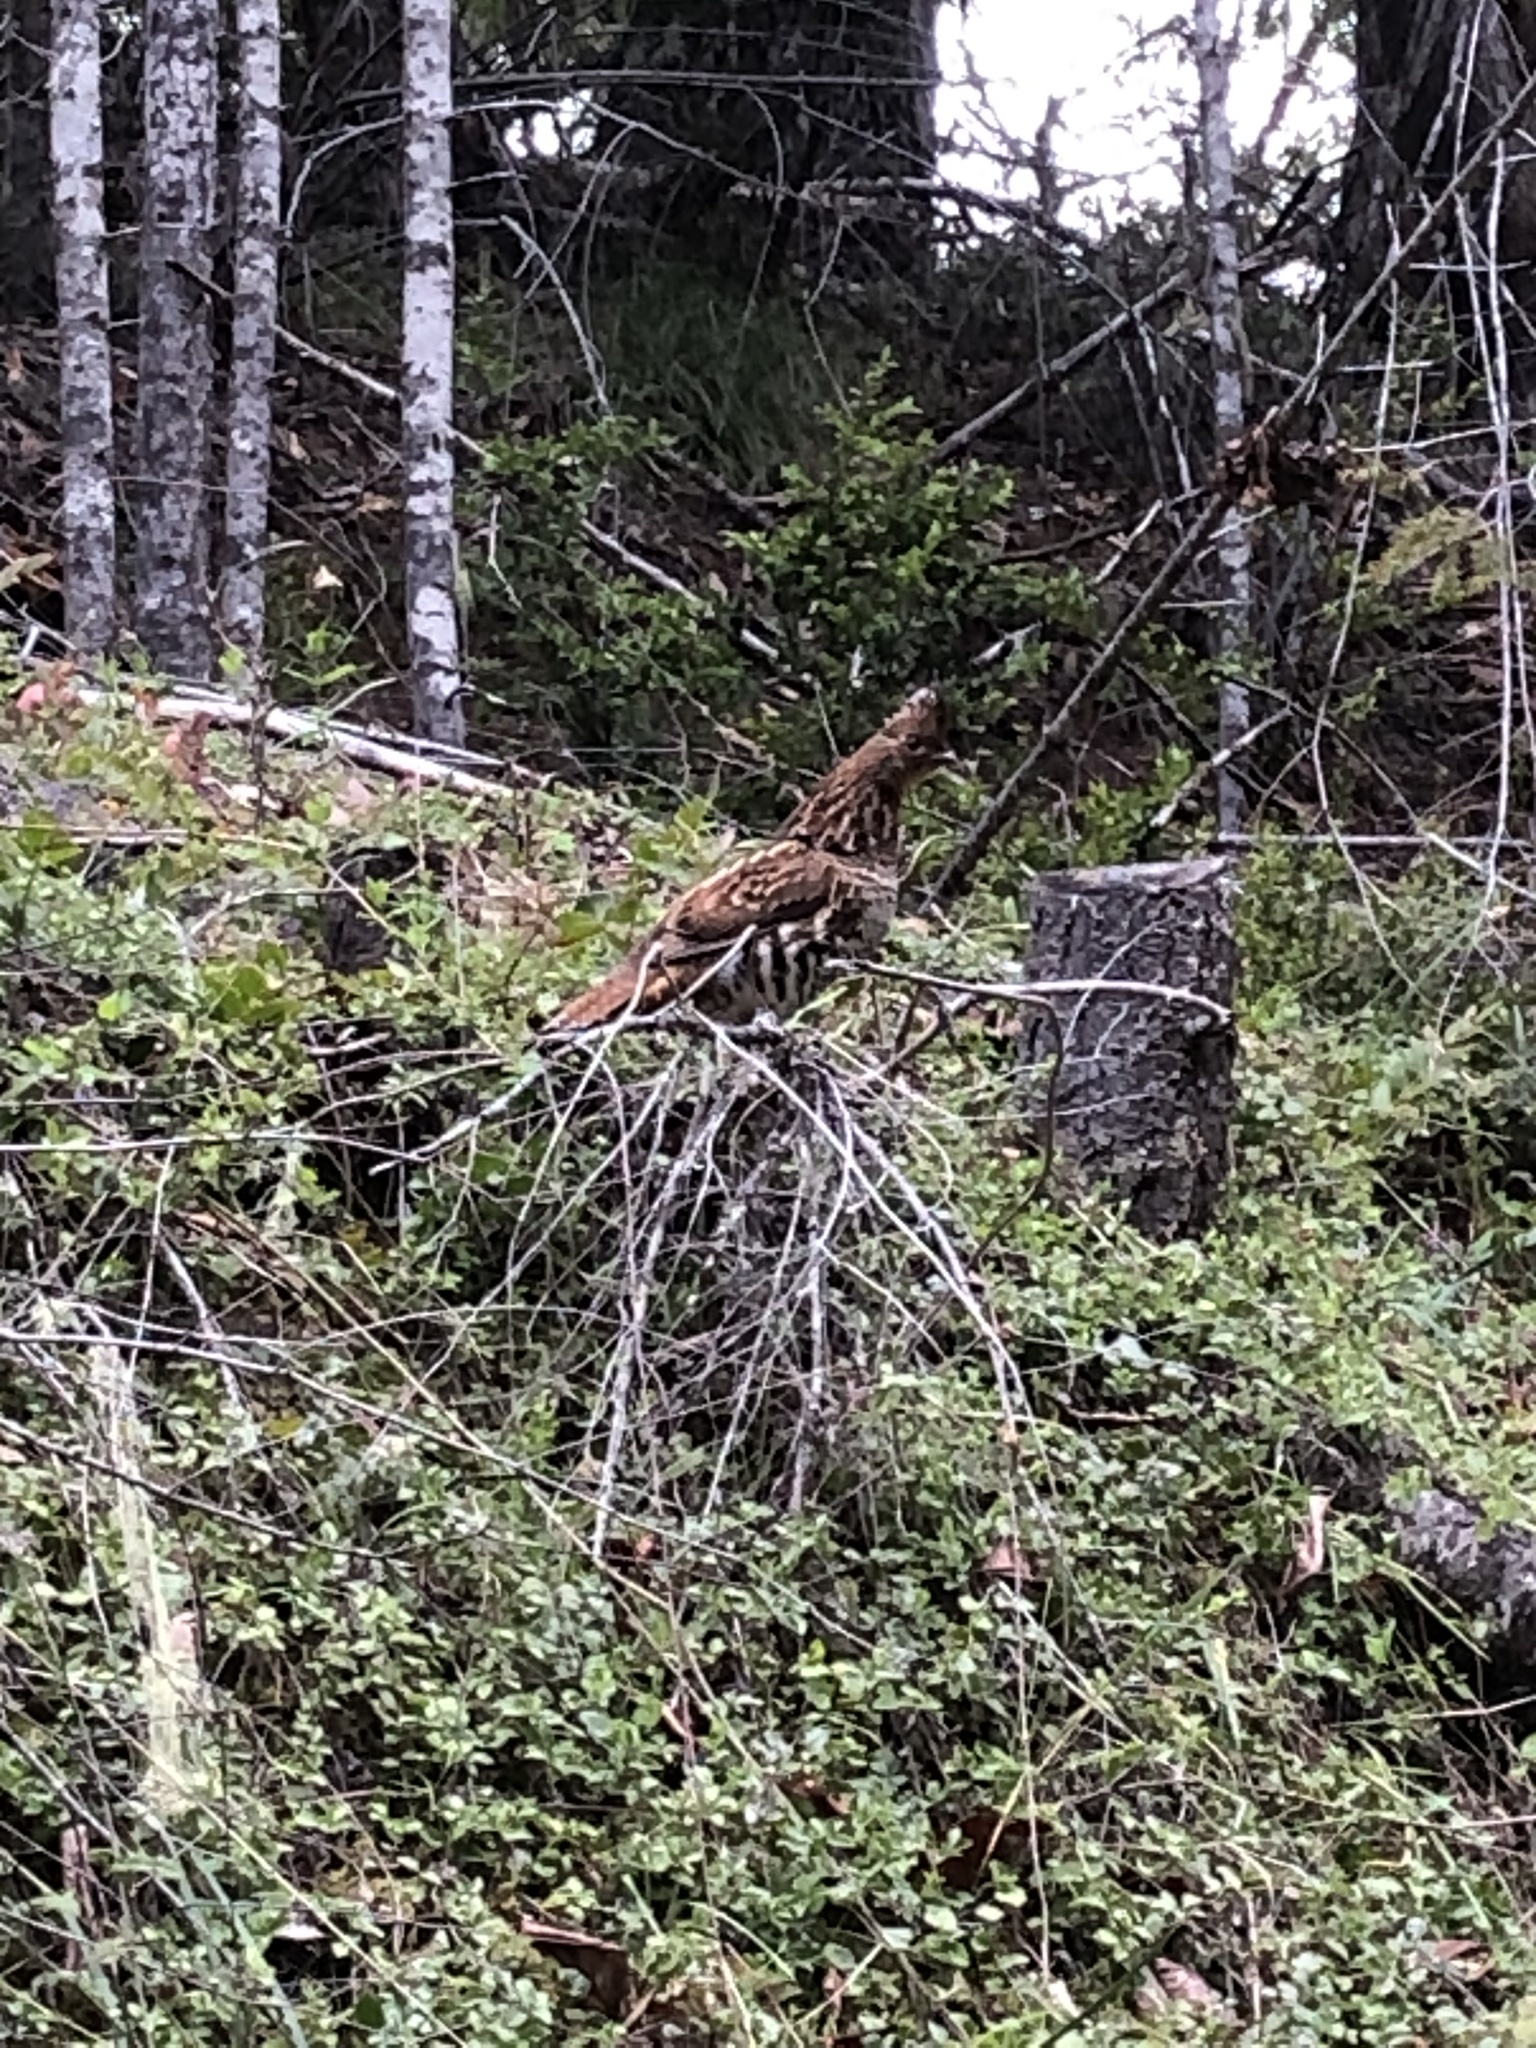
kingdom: Animalia
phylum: Chordata
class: Aves
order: Galliformes
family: Phasianidae
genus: Bonasa
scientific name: Bonasa umbellus
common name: Ruffed grouse
